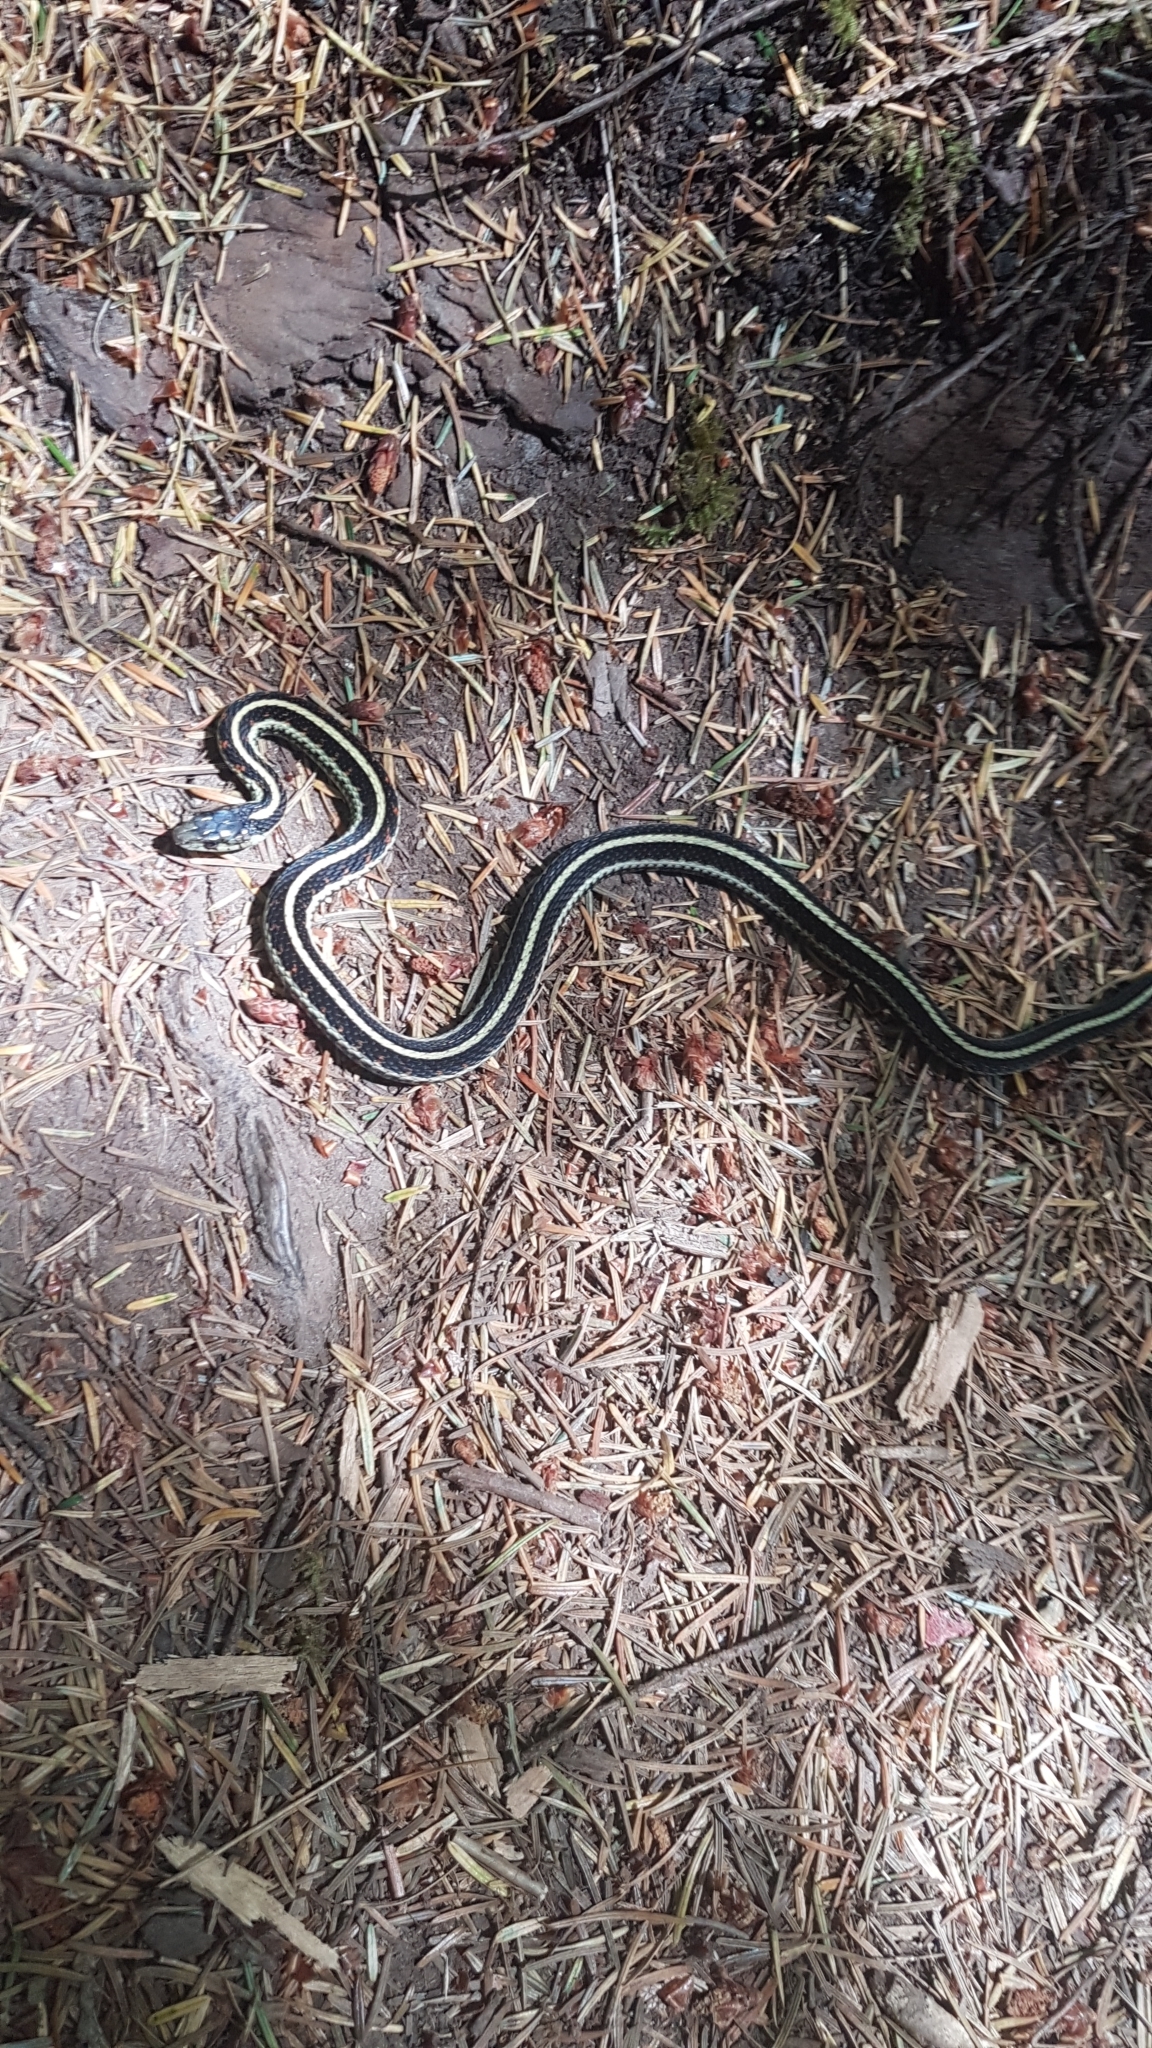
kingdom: Animalia
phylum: Chordata
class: Squamata
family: Colubridae
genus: Thamnophis
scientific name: Thamnophis sirtalis
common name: Common garter snake
